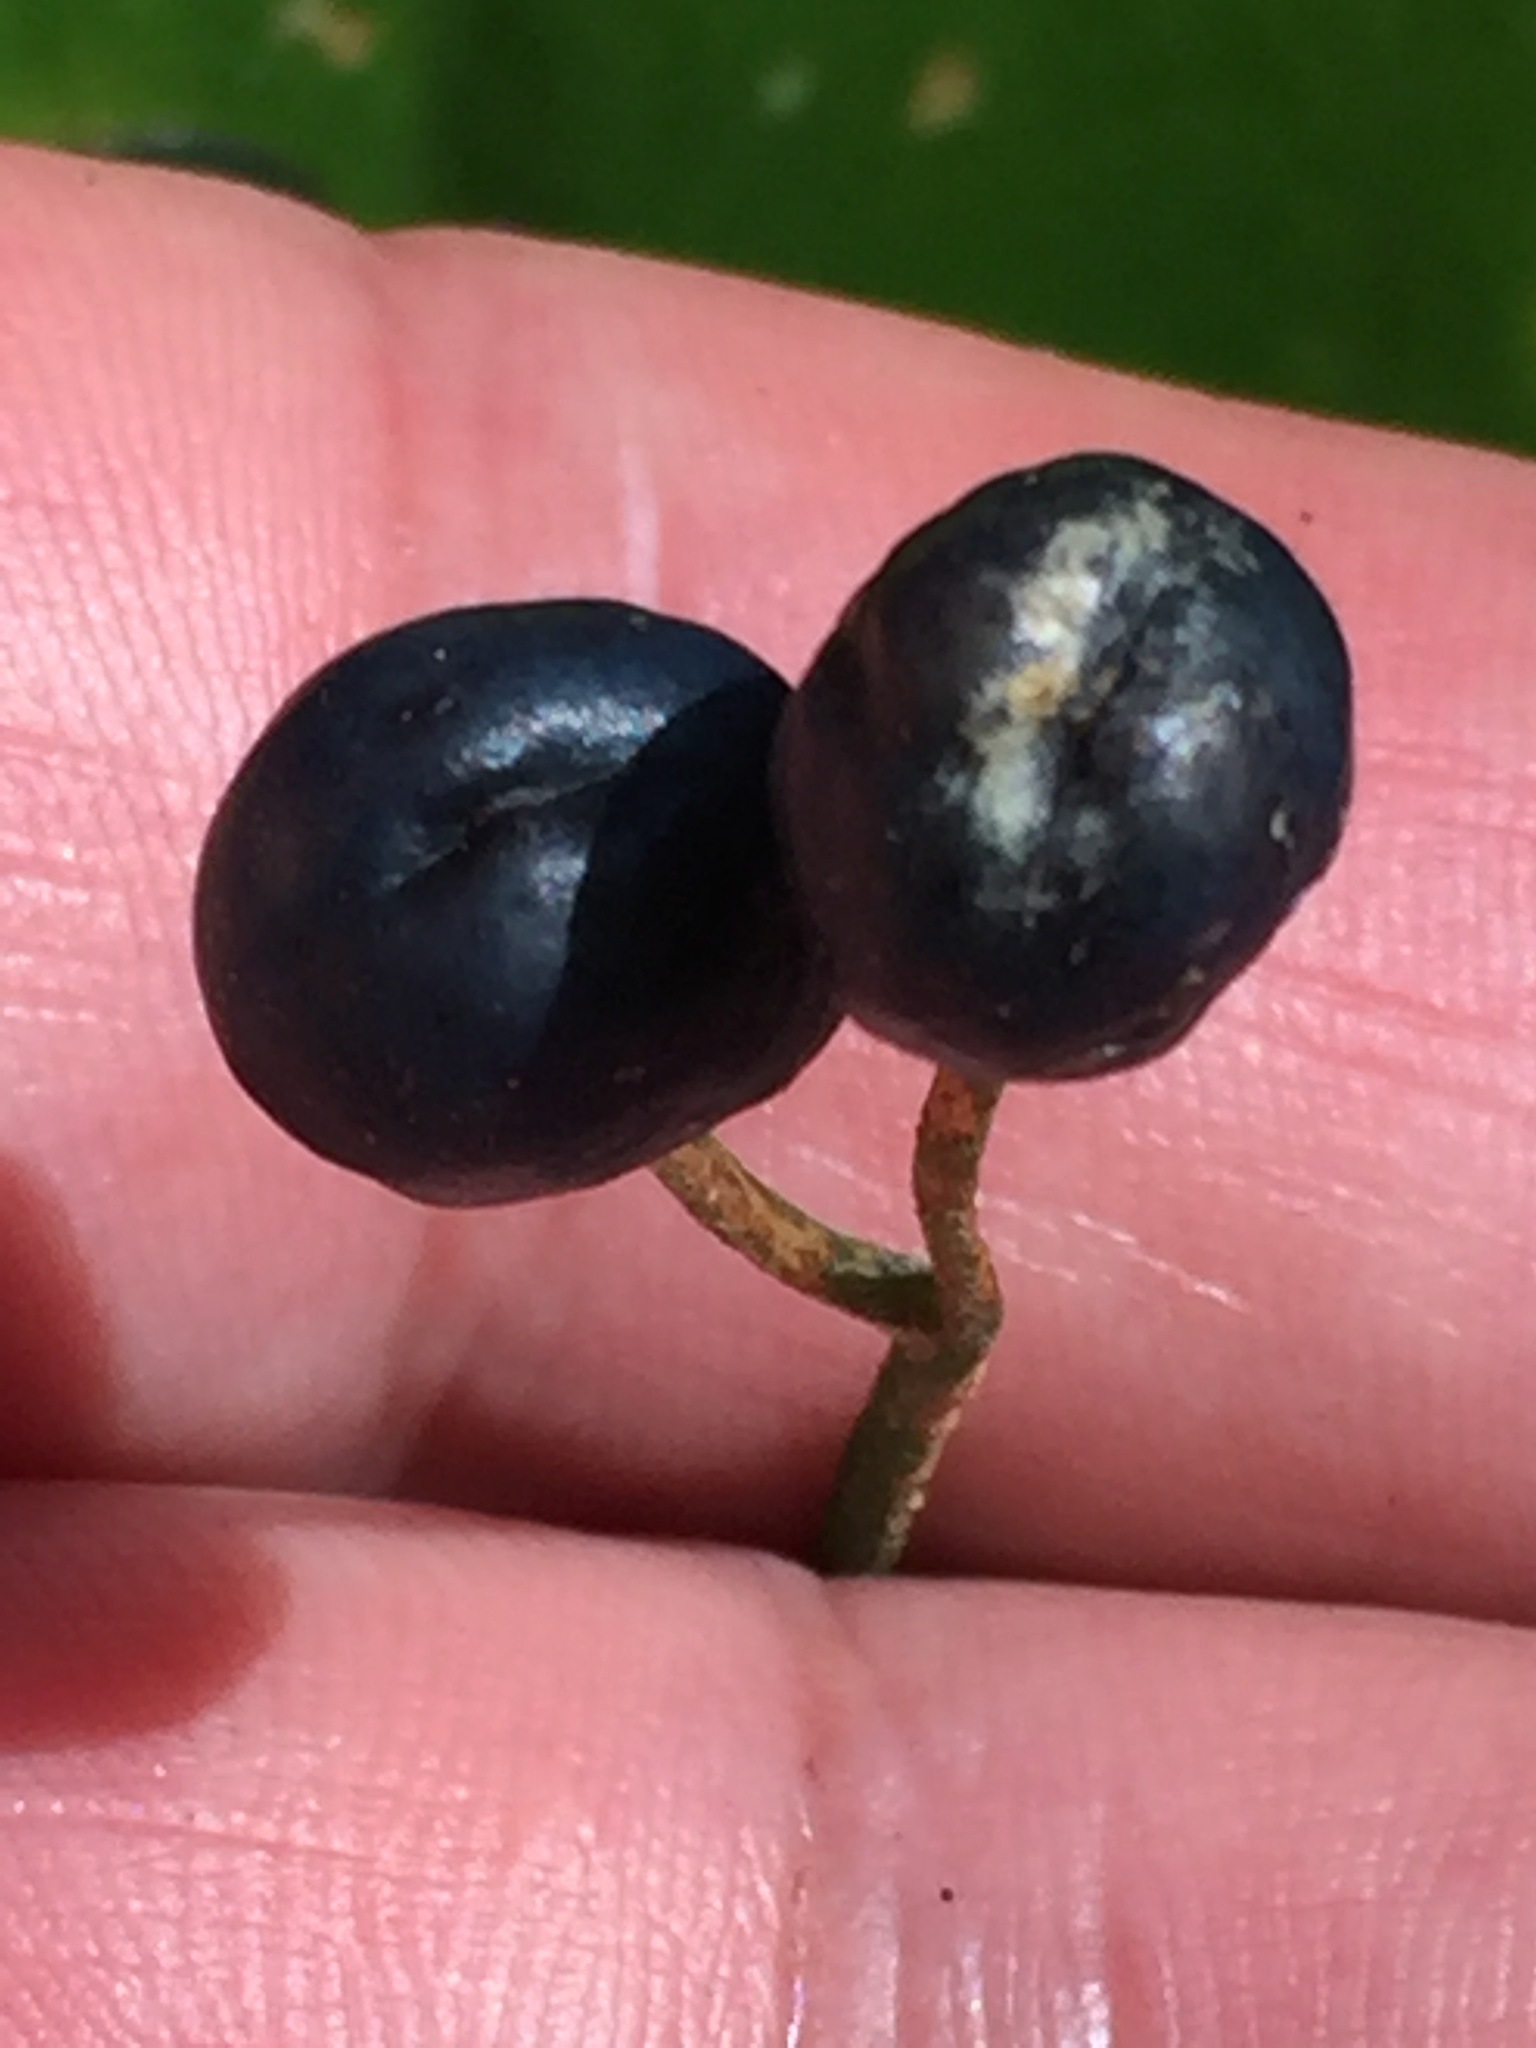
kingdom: Plantae
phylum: Tracheophyta
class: Liliopsida
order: Liliales
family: Liliaceae
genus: Clintonia
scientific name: Clintonia borealis
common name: Yellow clintonia
